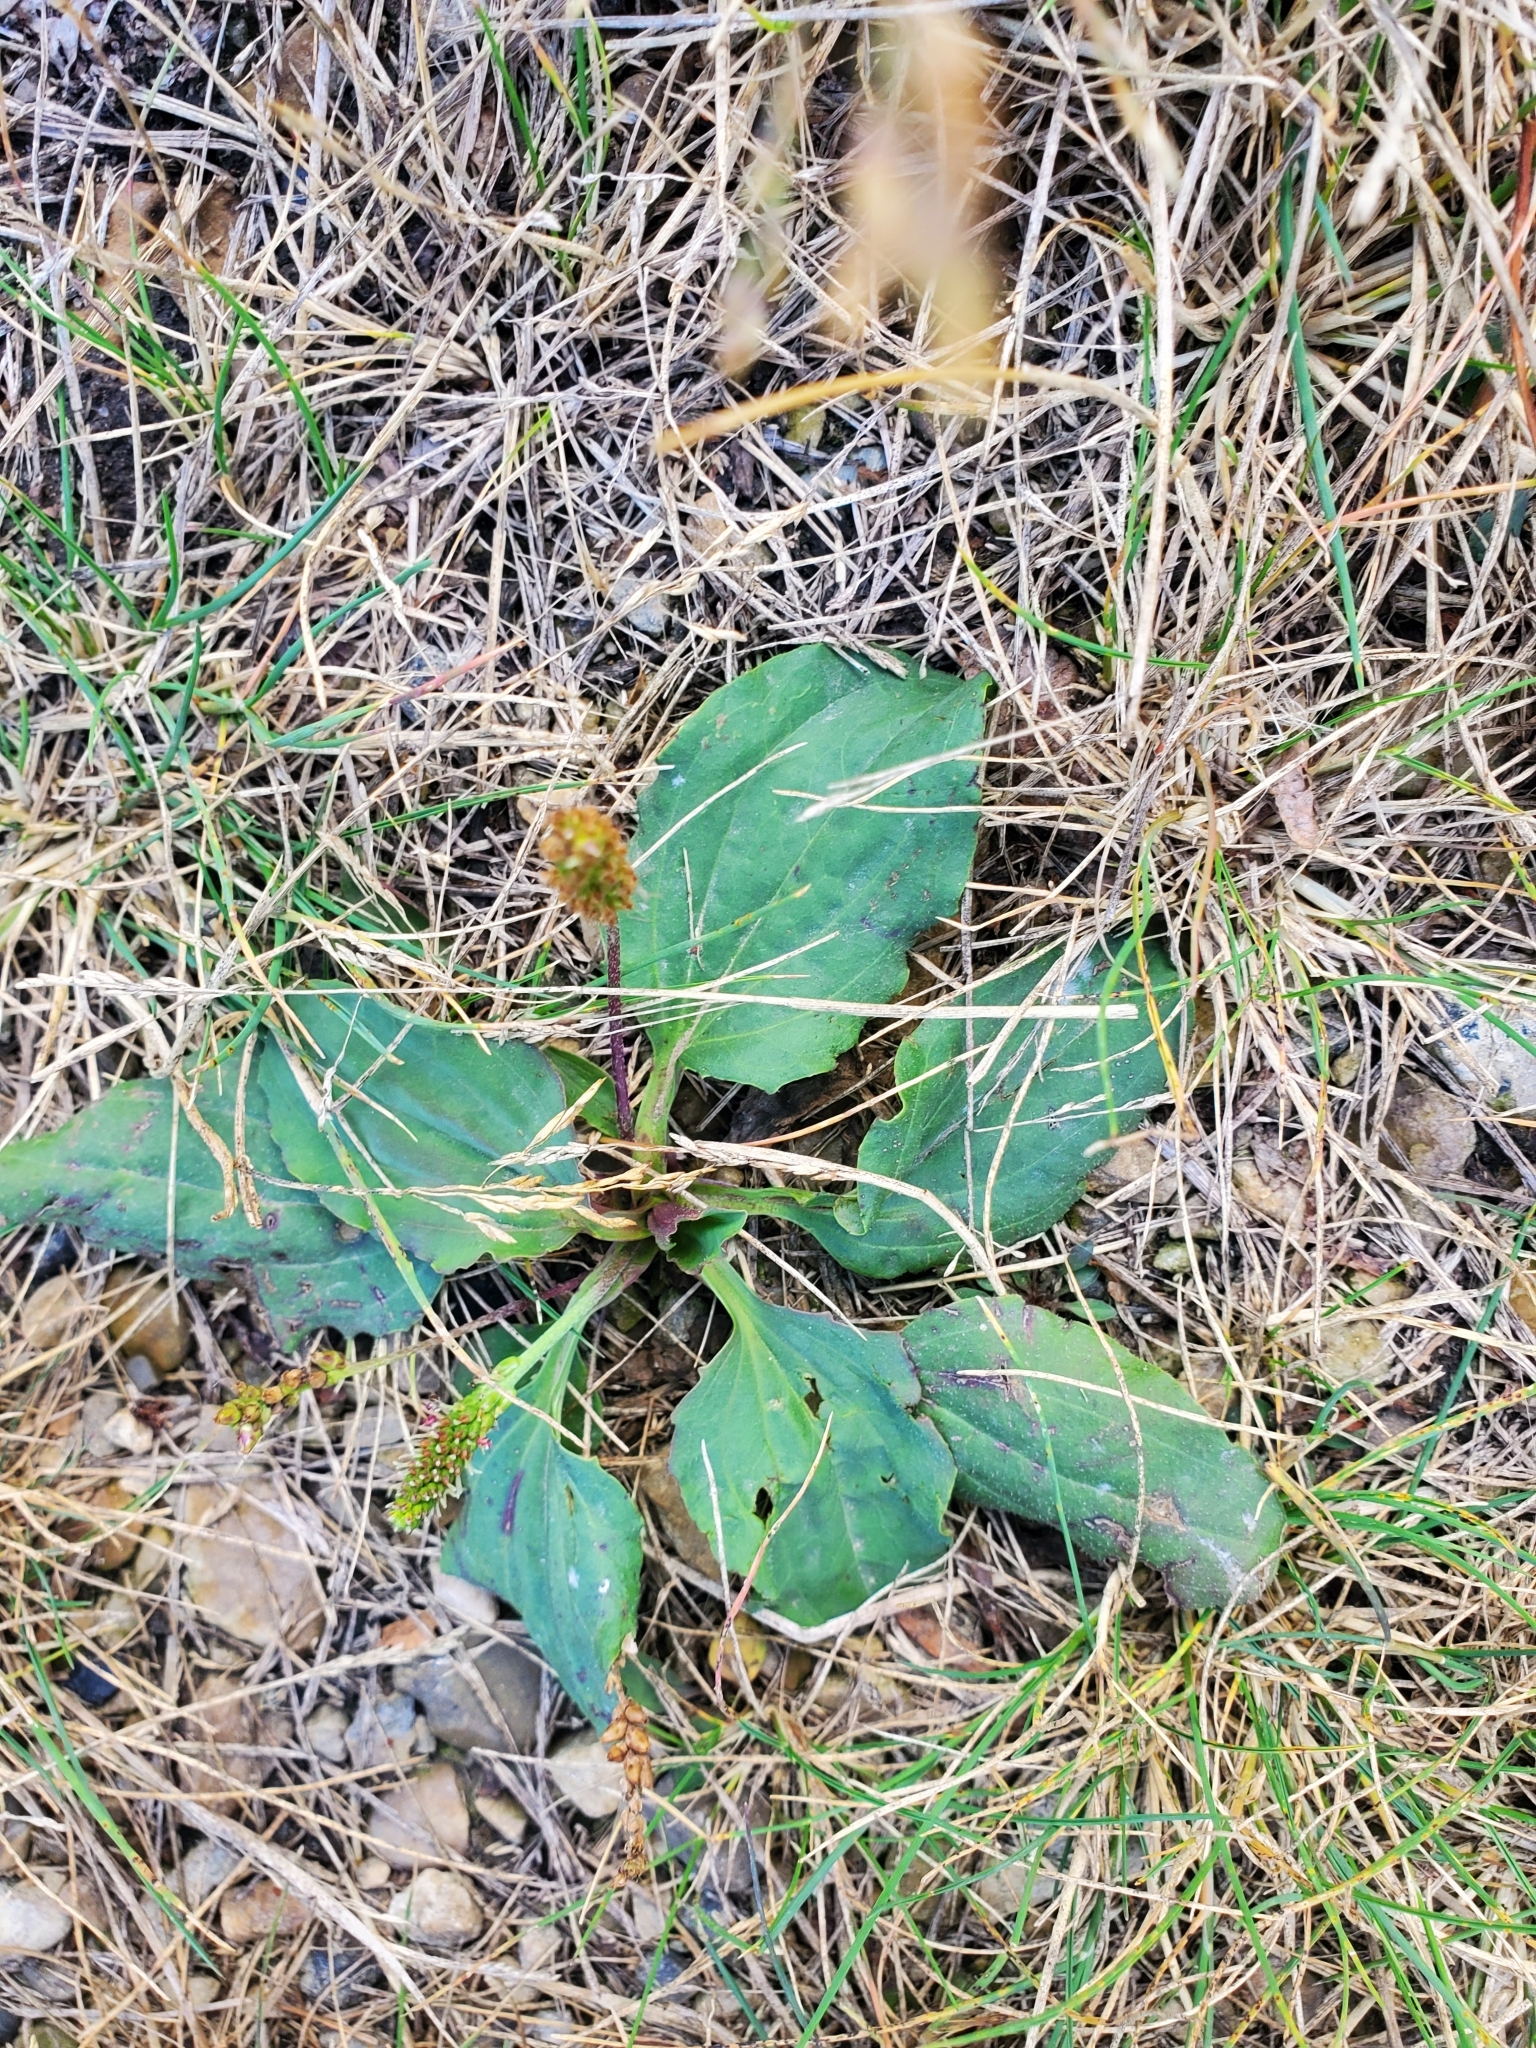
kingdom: Plantae
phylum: Tracheophyta
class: Magnoliopsida
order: Lamiales
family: Plantaginaceae
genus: Plantago
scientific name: Plantago major
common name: Common plantain
